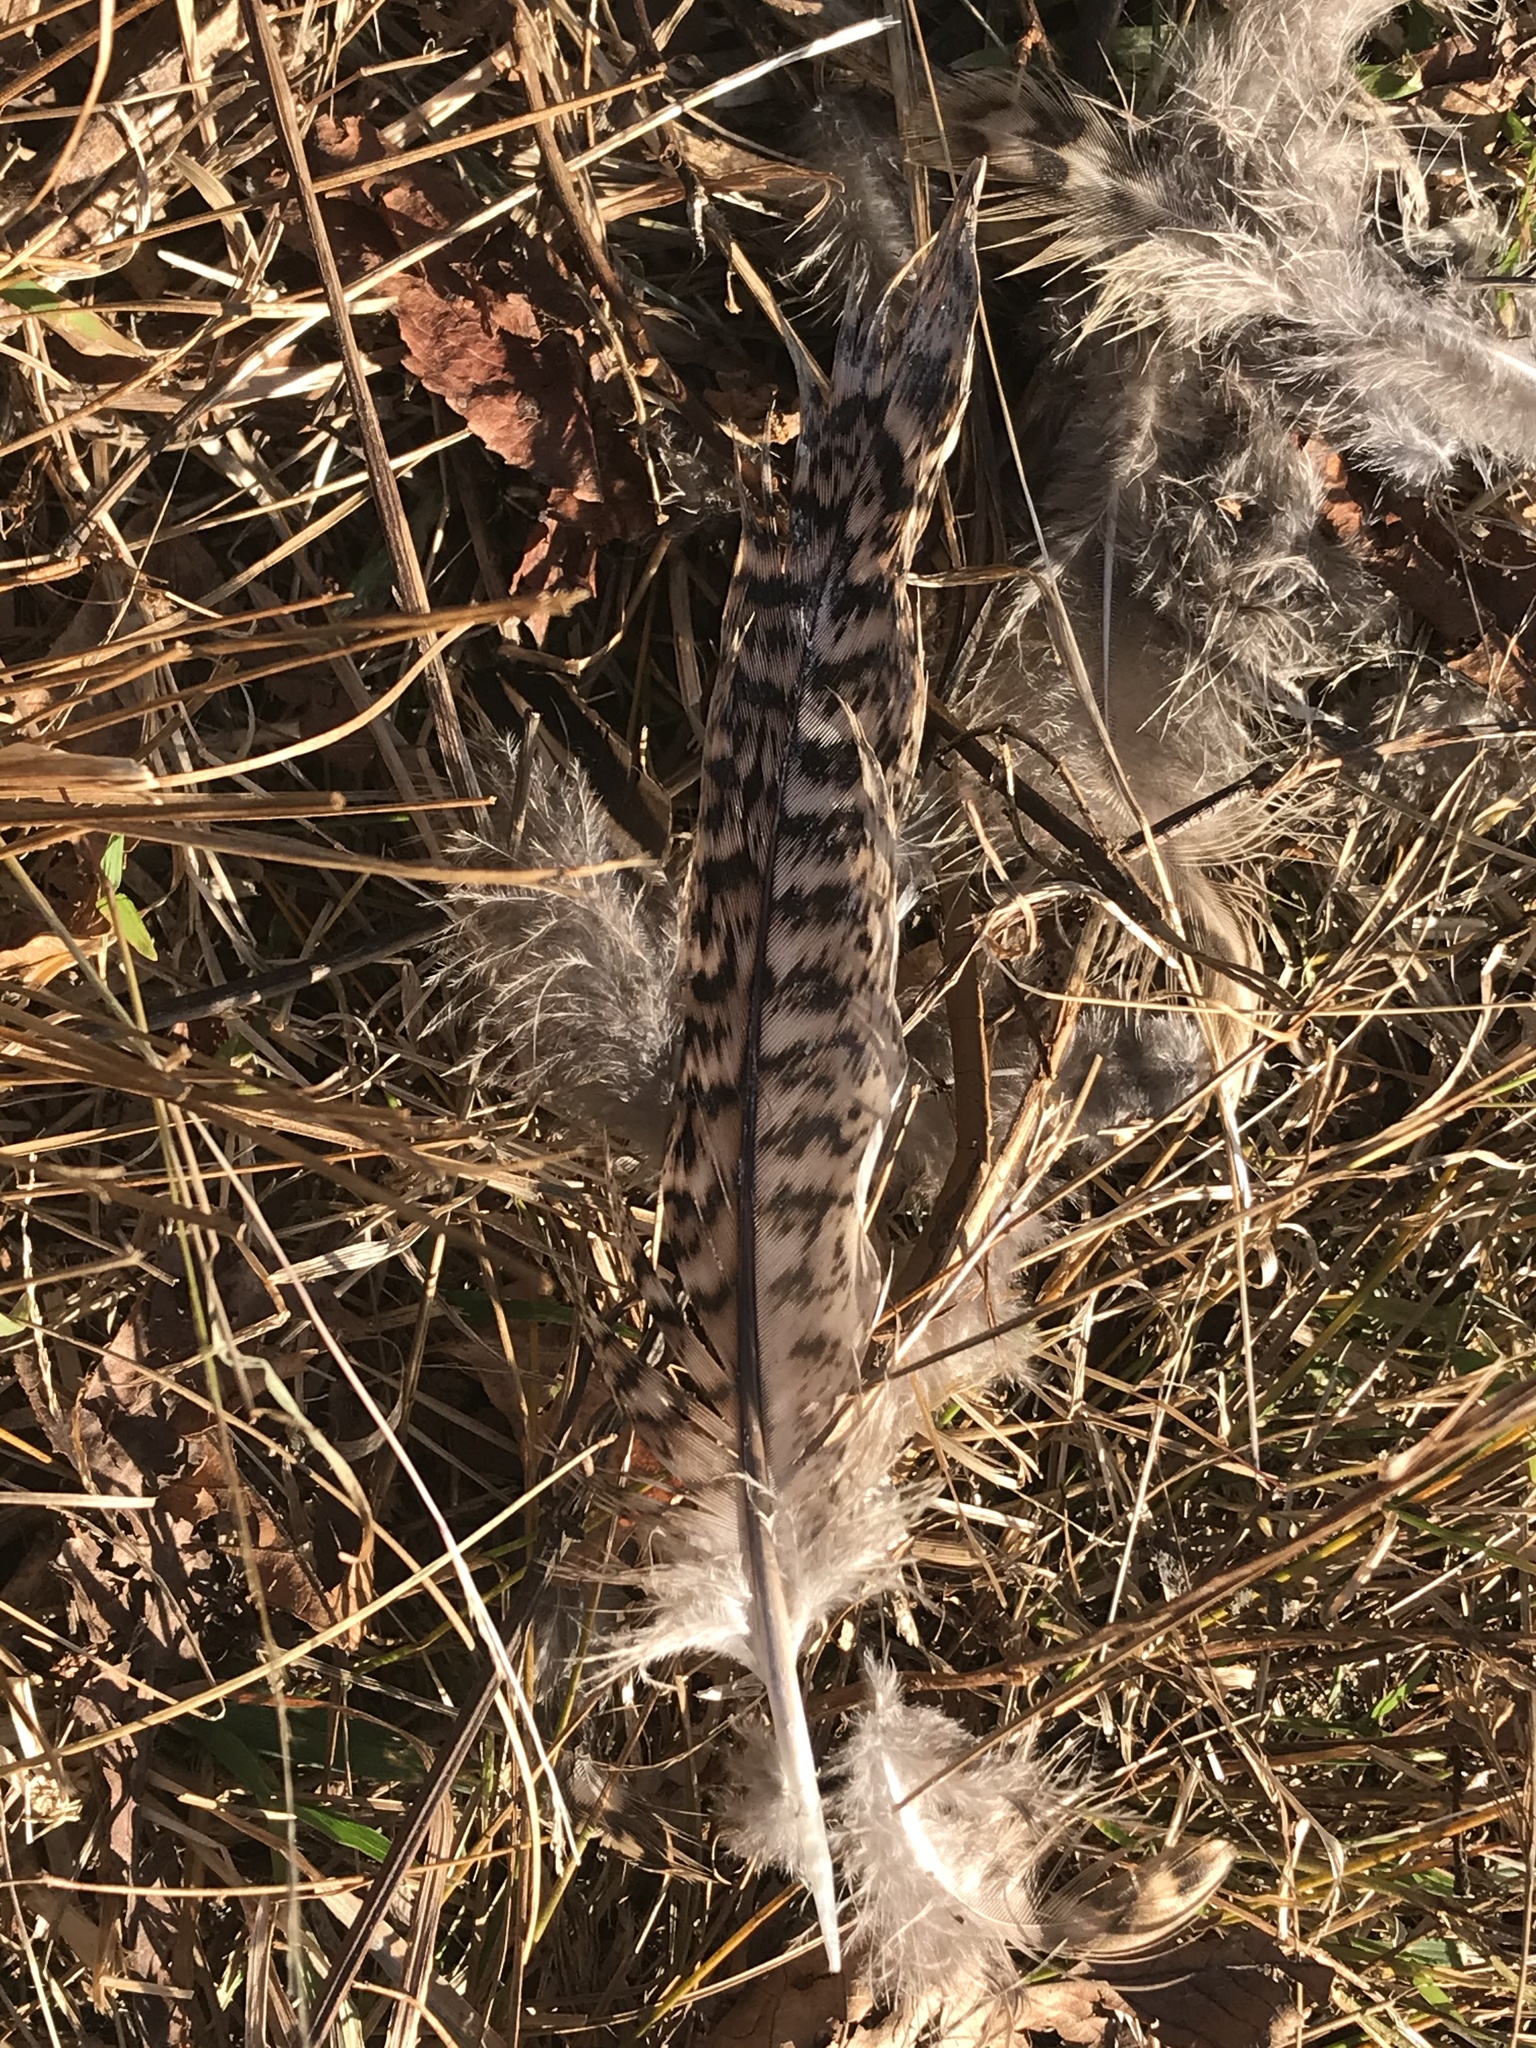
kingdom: Animalia
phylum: Chordata
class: Aves
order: Galliformes
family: Phasianidae
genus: Phasianus
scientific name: Phasianus colchicus
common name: Common pheasant
